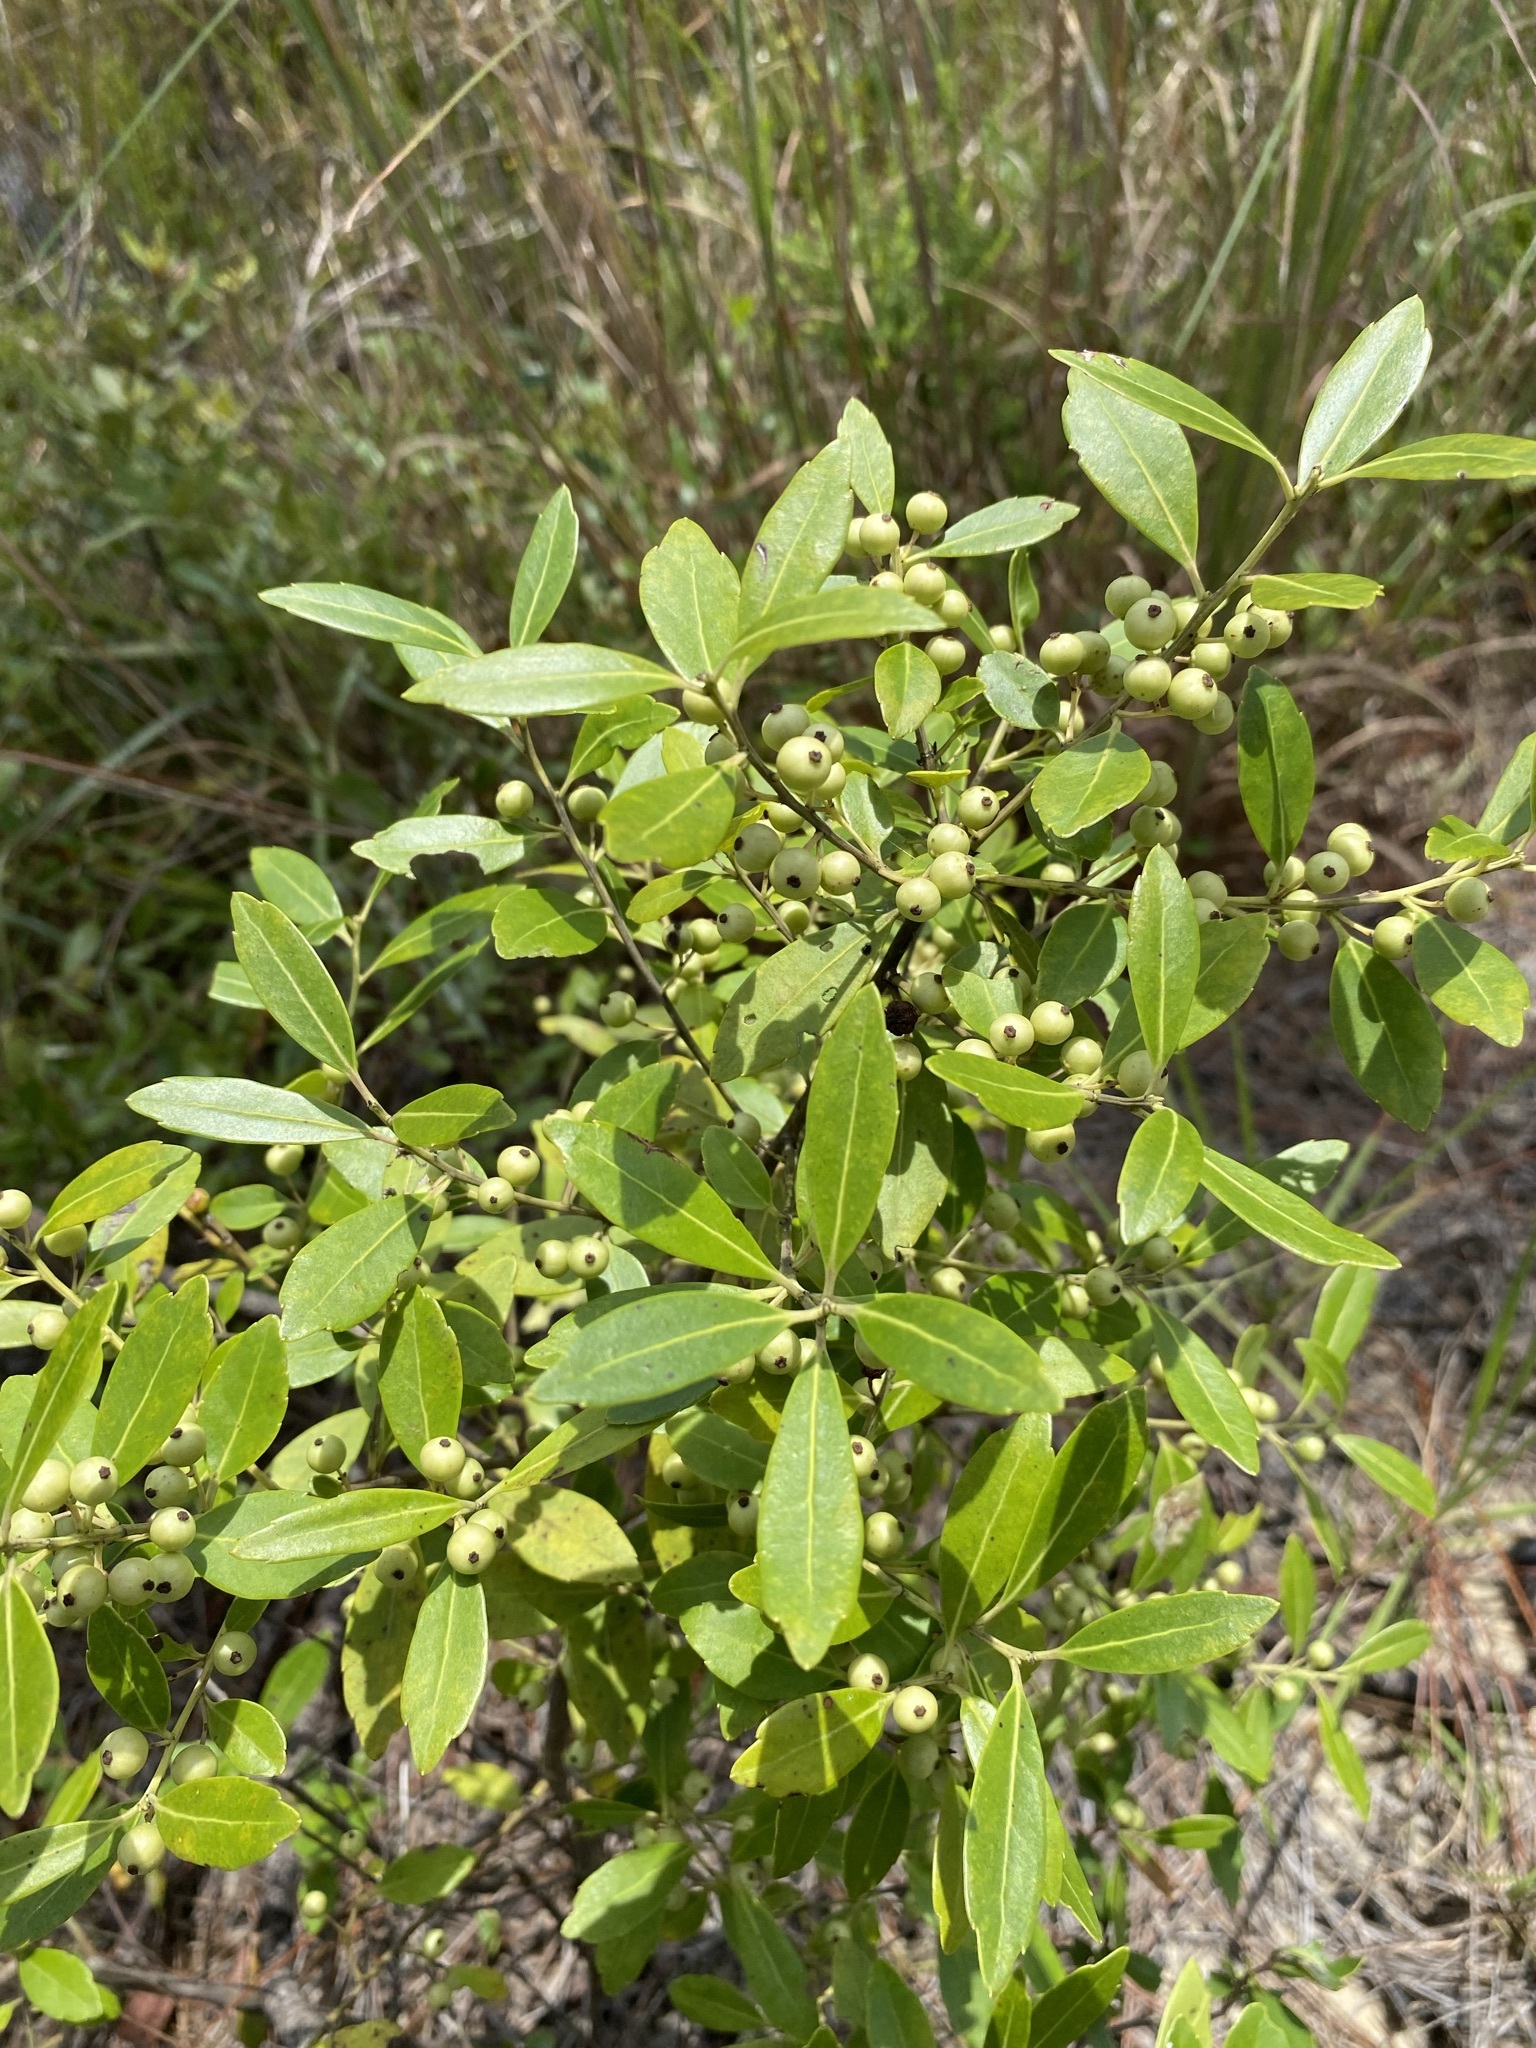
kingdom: Plantae
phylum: Tracheophyta
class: Magnoliopsida
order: Aquifoliales
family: Aquifoliaceae
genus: Ilex
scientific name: Ilex glabra
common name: Bitter gallberry
